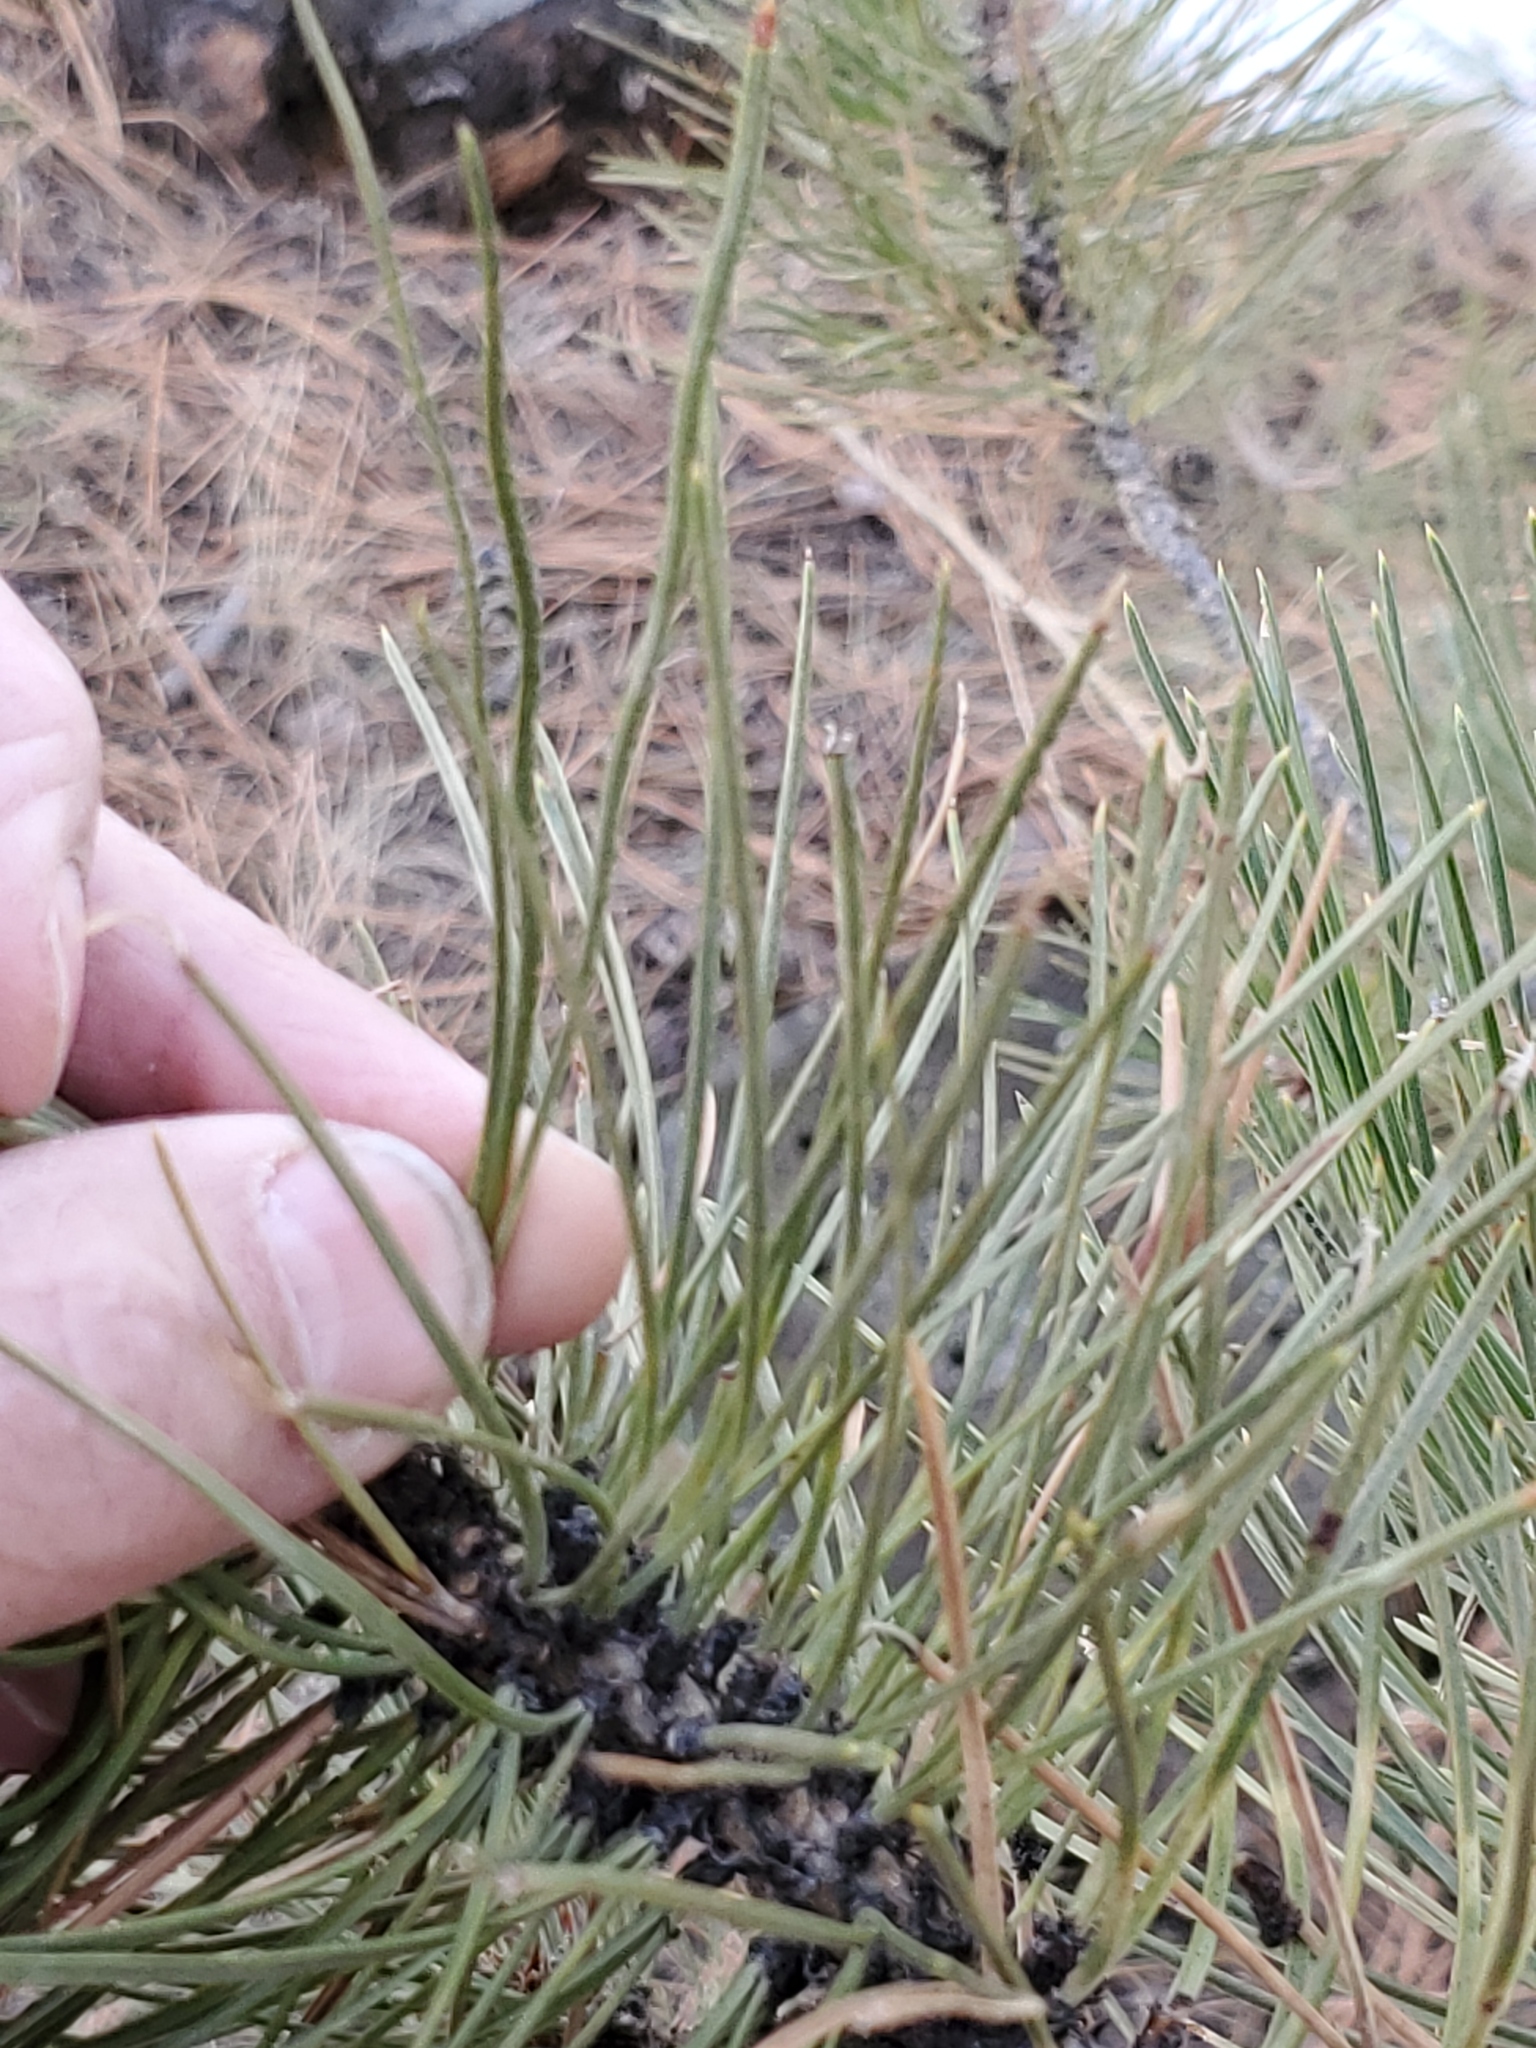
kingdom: Plantae
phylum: Tracheophyta
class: Pinopsida
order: Pinales
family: Pinaceae
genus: Pinus
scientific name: Pinus ponderosa
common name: Western yellow-pine
